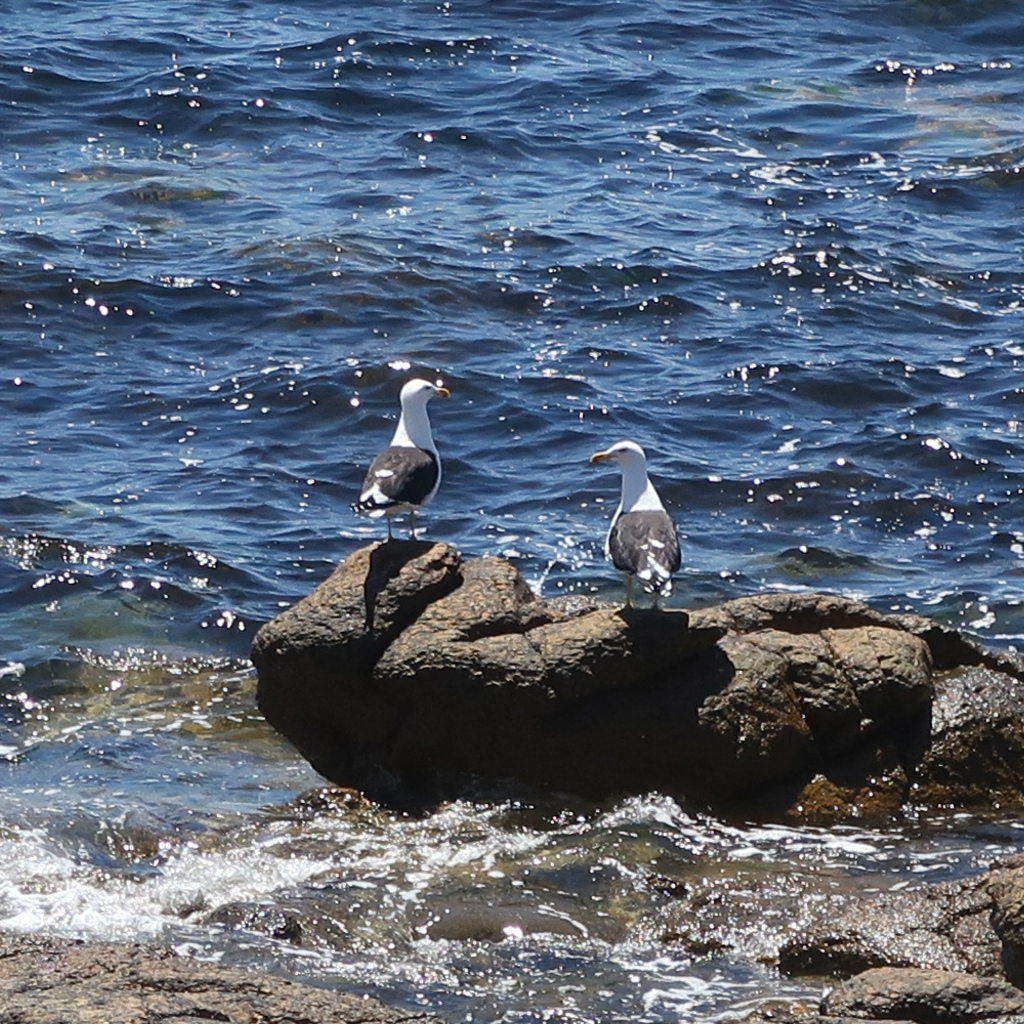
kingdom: Animalia
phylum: Chordata
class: Aves
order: Charadriiformes
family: Laridae
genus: Larus
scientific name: Larus dominicanus
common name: Kelp gull
